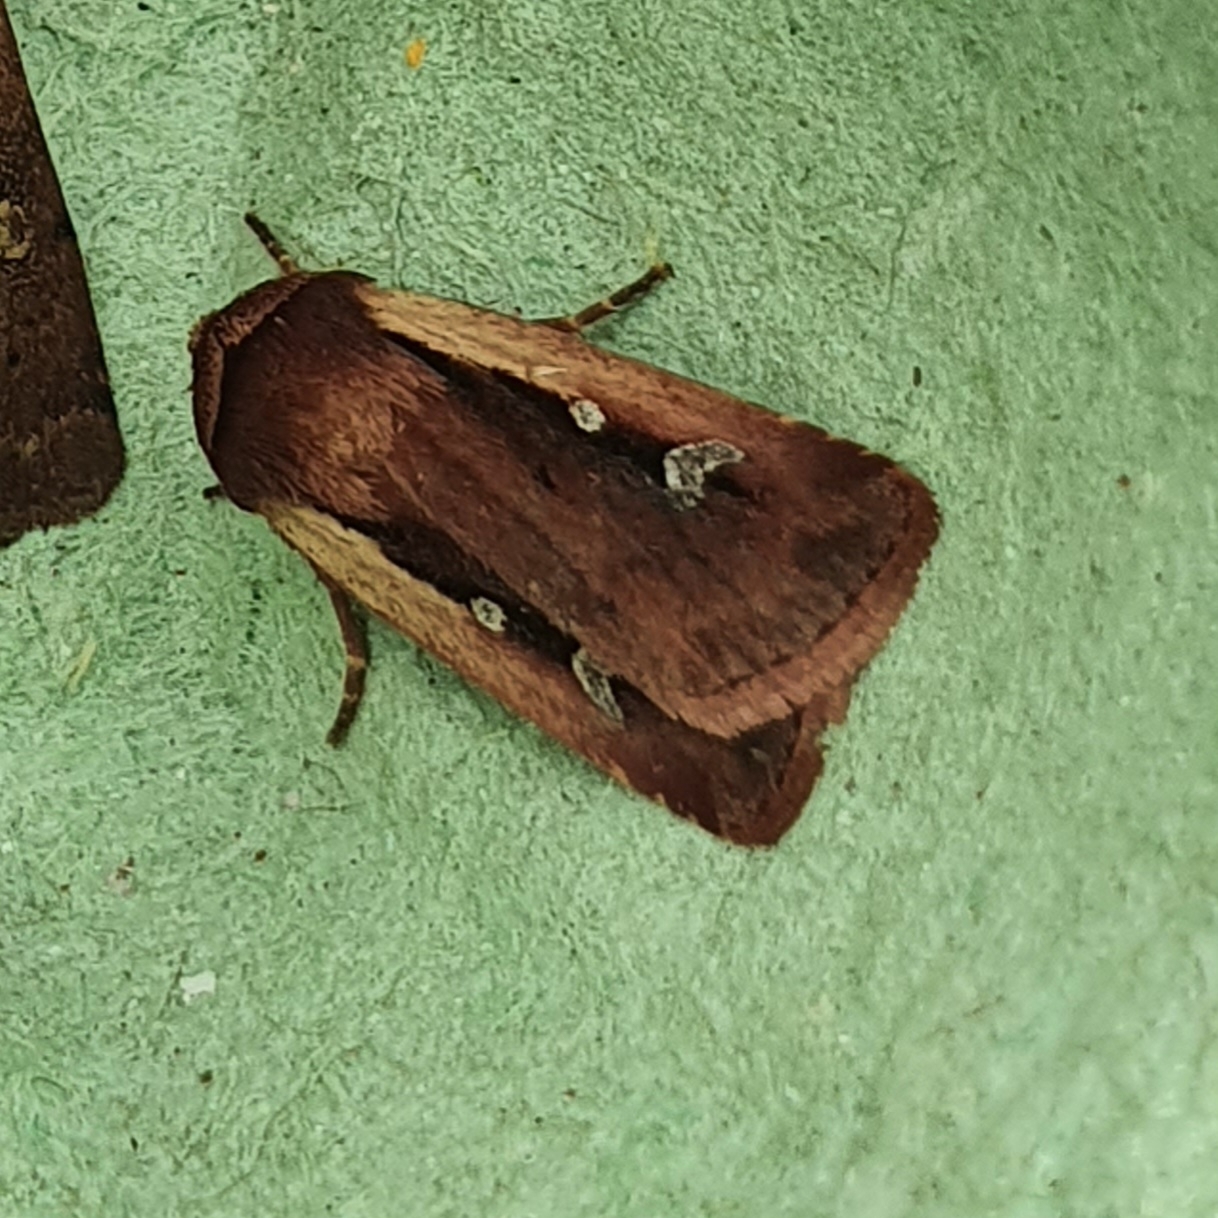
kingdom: Animalia
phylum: Arthropoda
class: Insecta
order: Lepidoptera
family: Noctuidae
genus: Ochropleura
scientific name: Ochropleura plecta
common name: Flame shoulder
